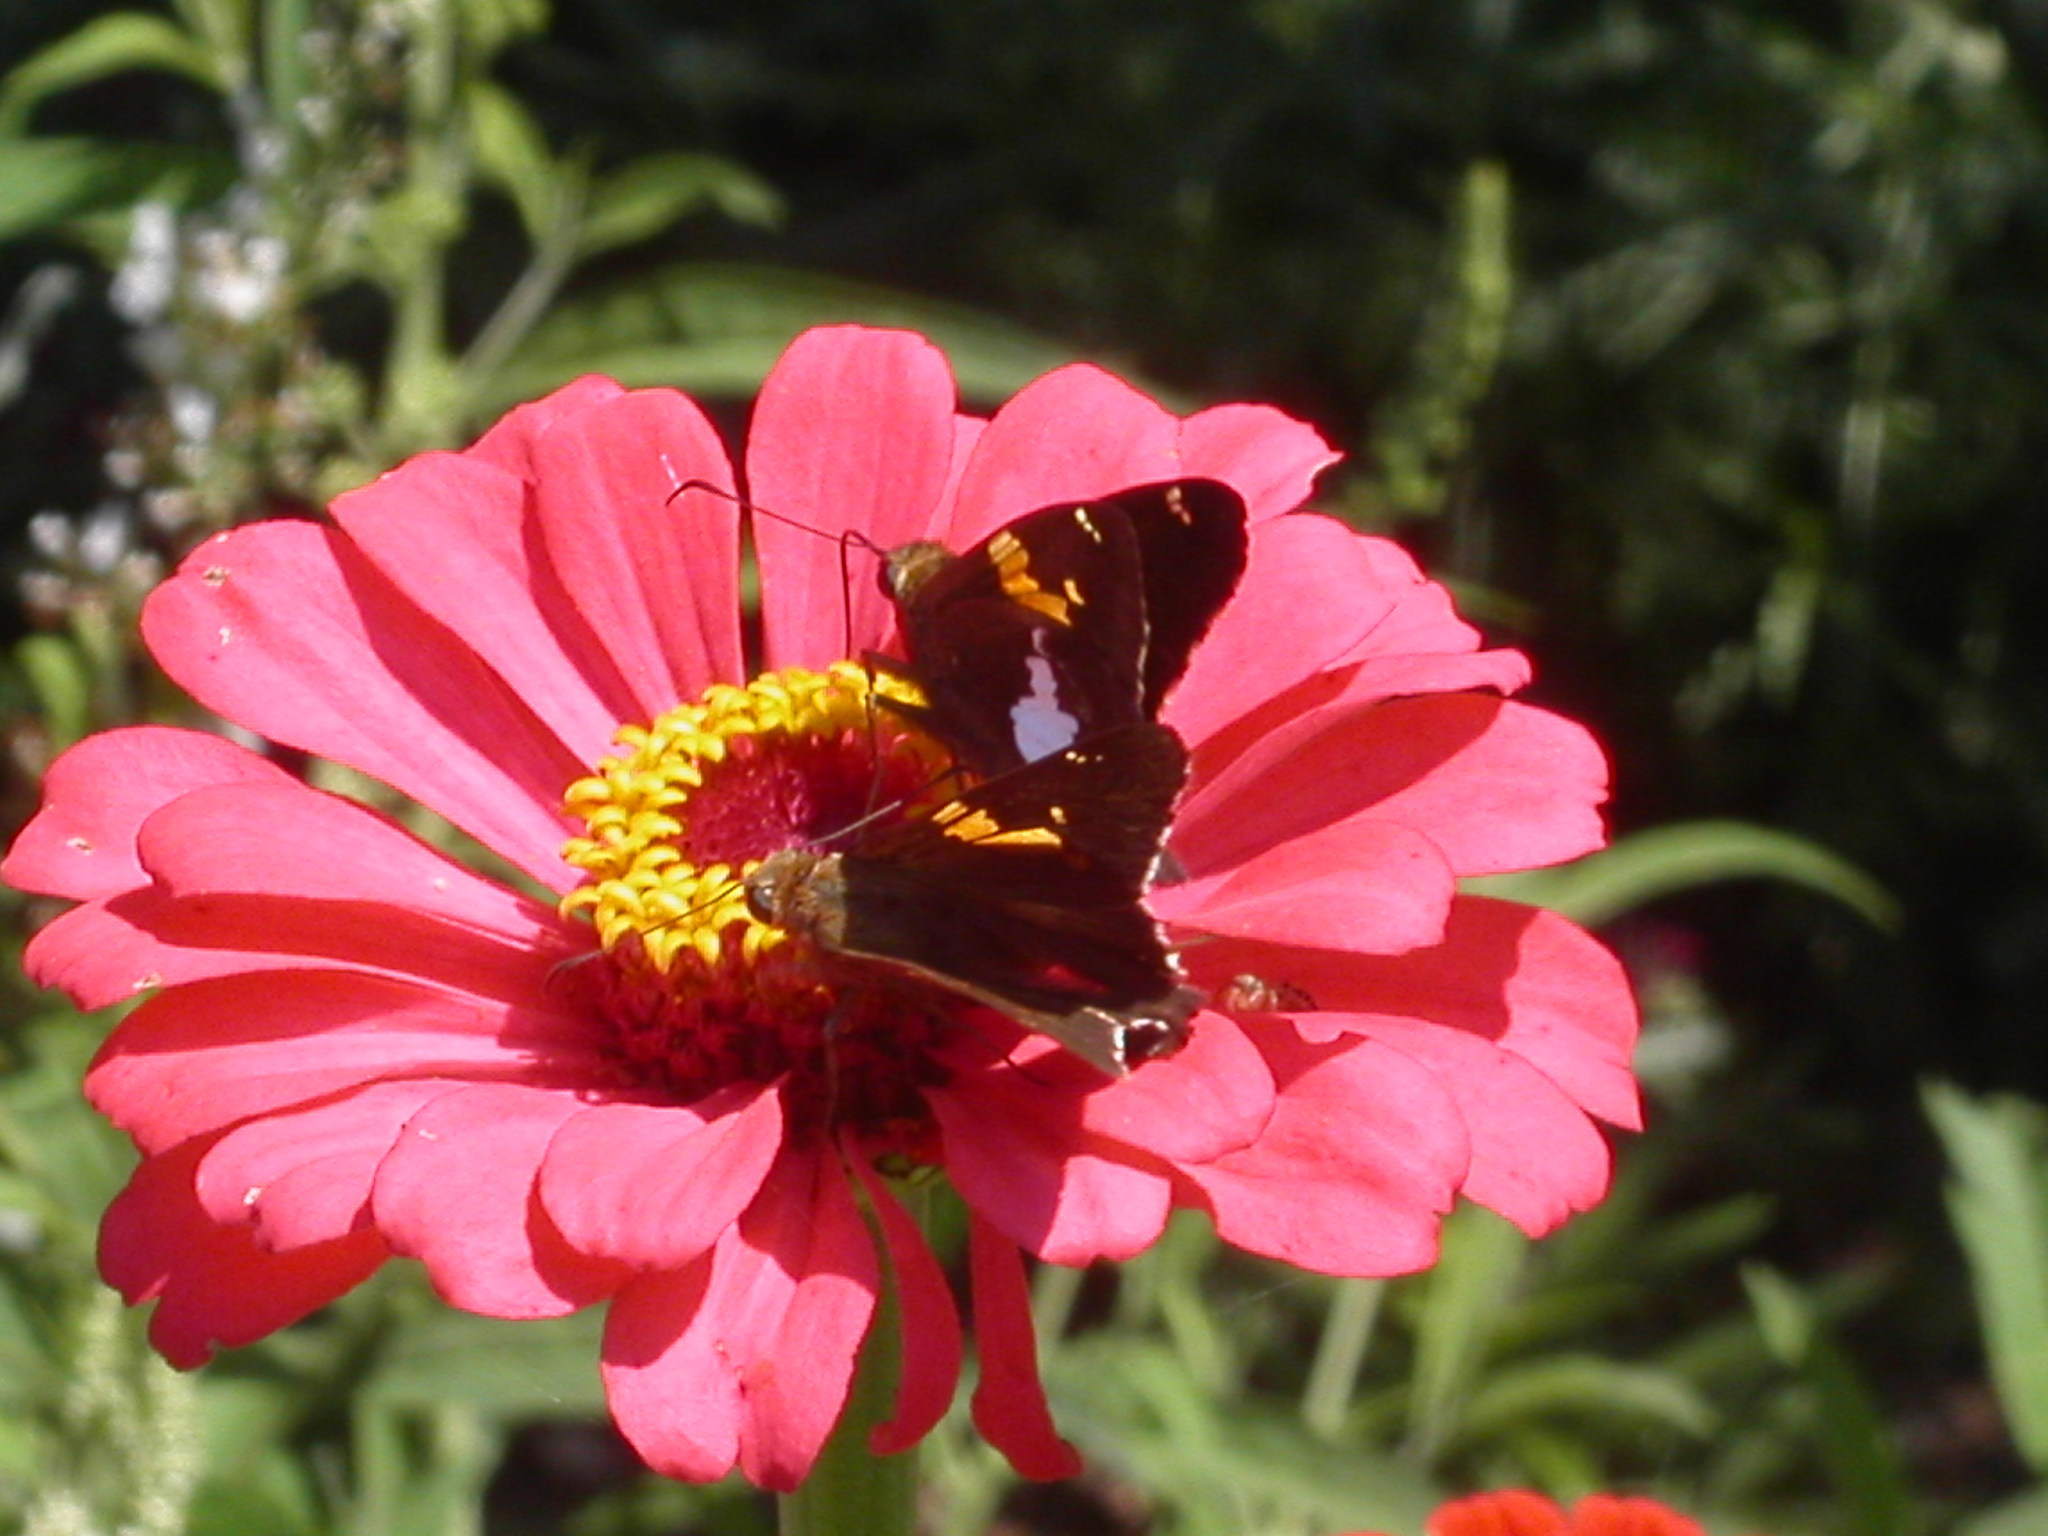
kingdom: Animalia
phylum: Arthropoda
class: Insecta
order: Lepidoptera
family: Hesperiidae
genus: Epargyreus
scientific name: Epargyreus clarus
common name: Silver-spotted skipper
